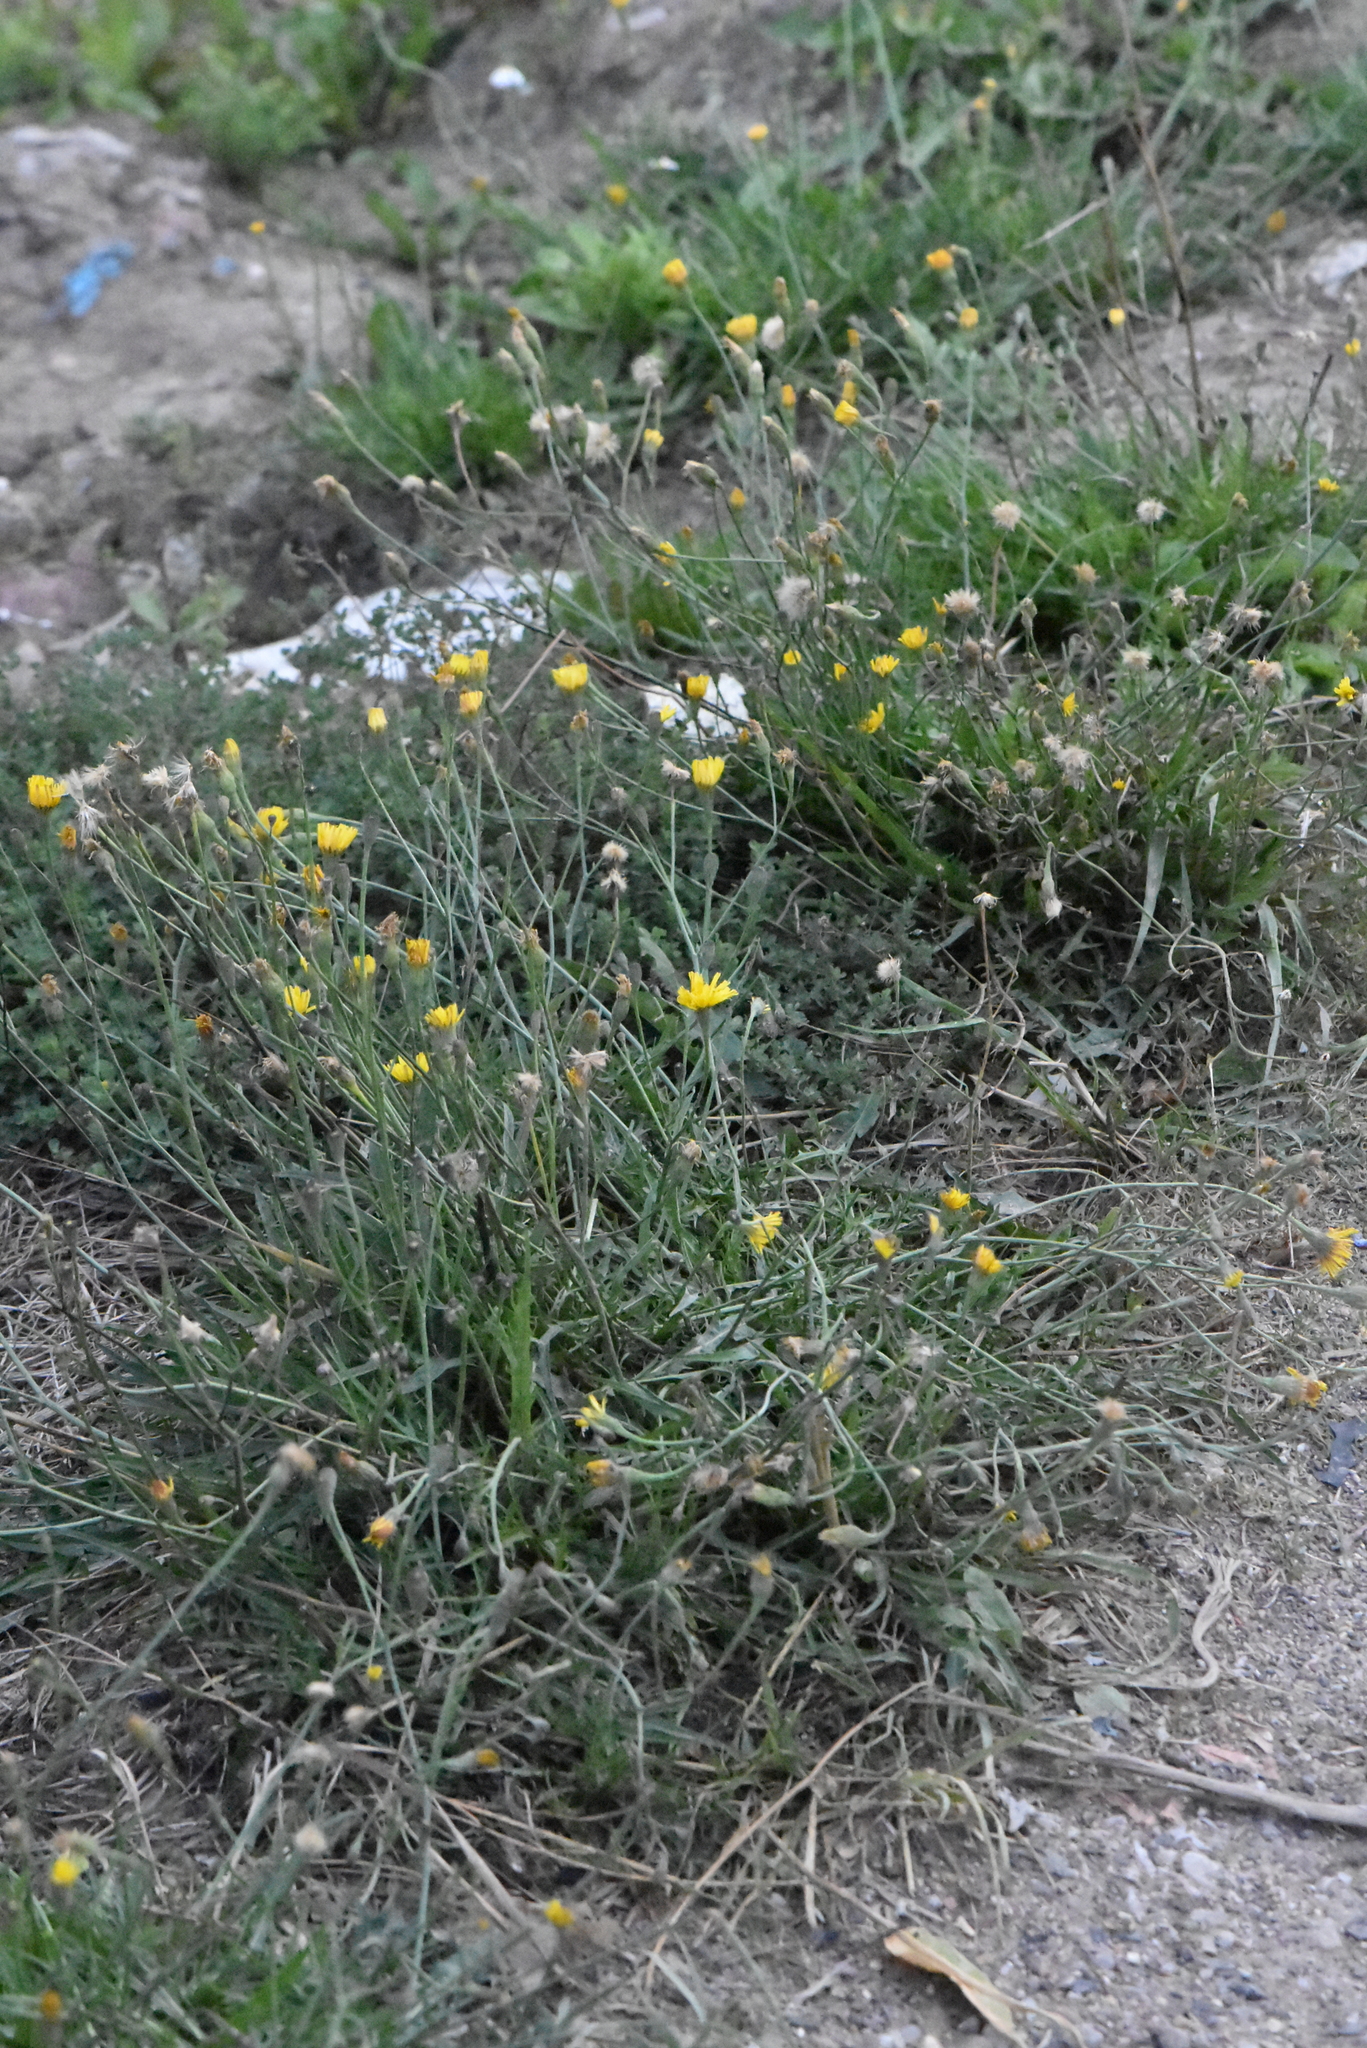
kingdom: Plantae
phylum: Tracheophyta
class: Magnoliopsida
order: Asterales
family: Asteraceae
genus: Scorzoneroides
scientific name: Scorzoneroides autumnalis
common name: Autumn hawkbit
